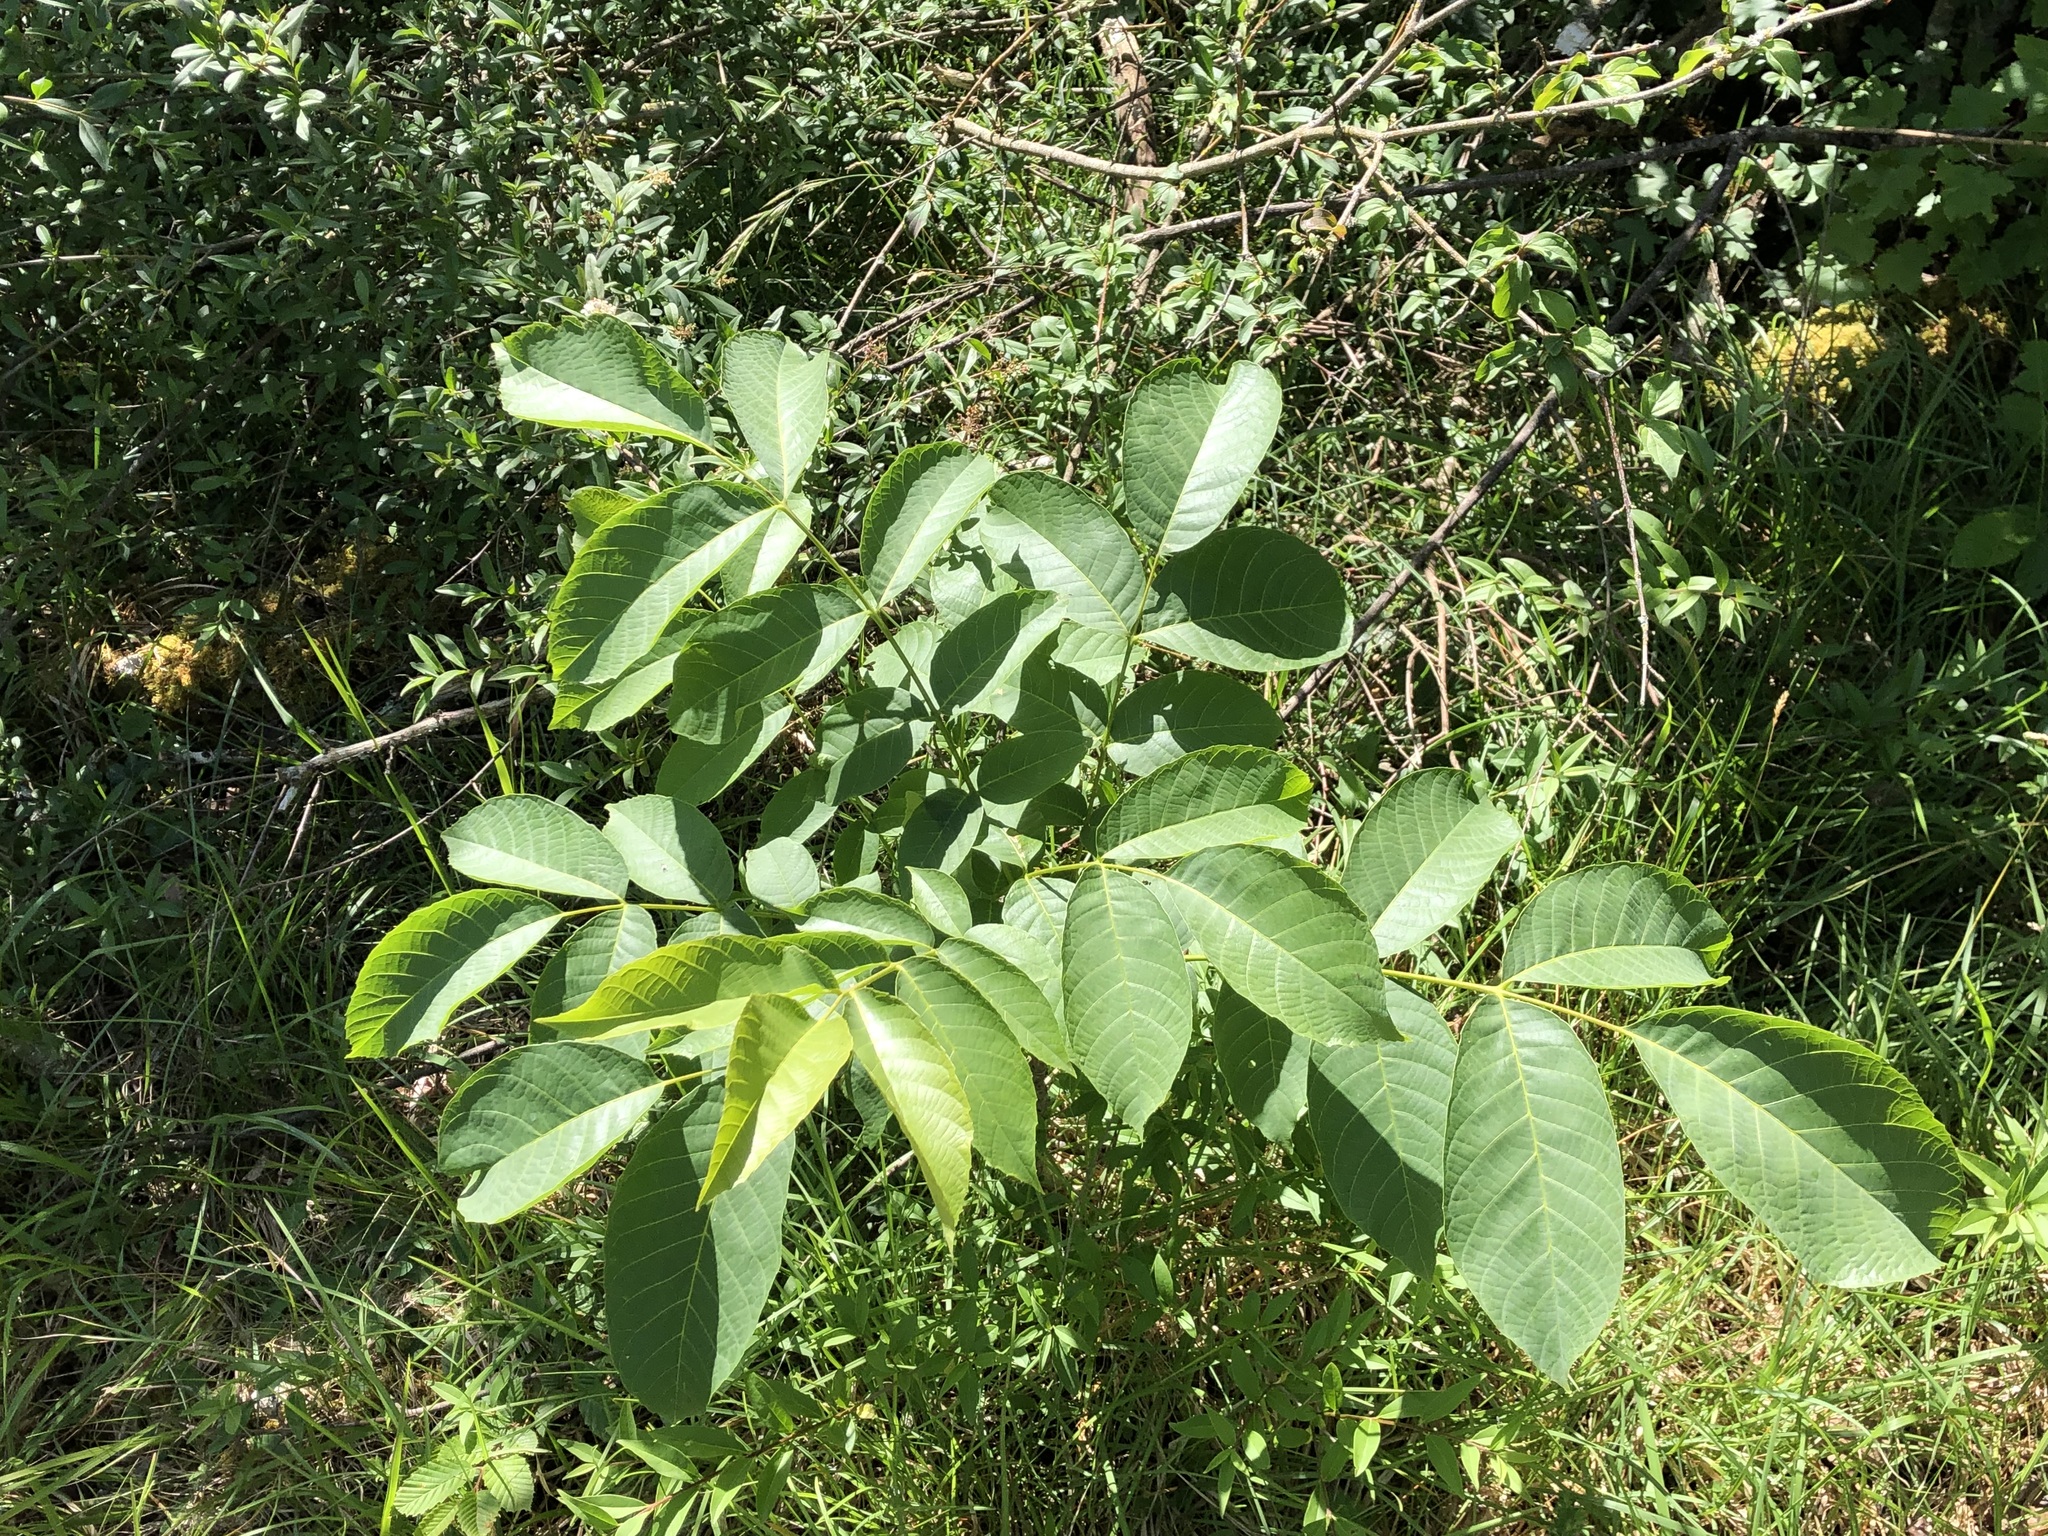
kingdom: Plantae
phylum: Tracheophyta
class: Magnoliopsida
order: Fagales
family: Juglandaceae
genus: Juglans
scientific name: Juglans regia
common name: Walnut
